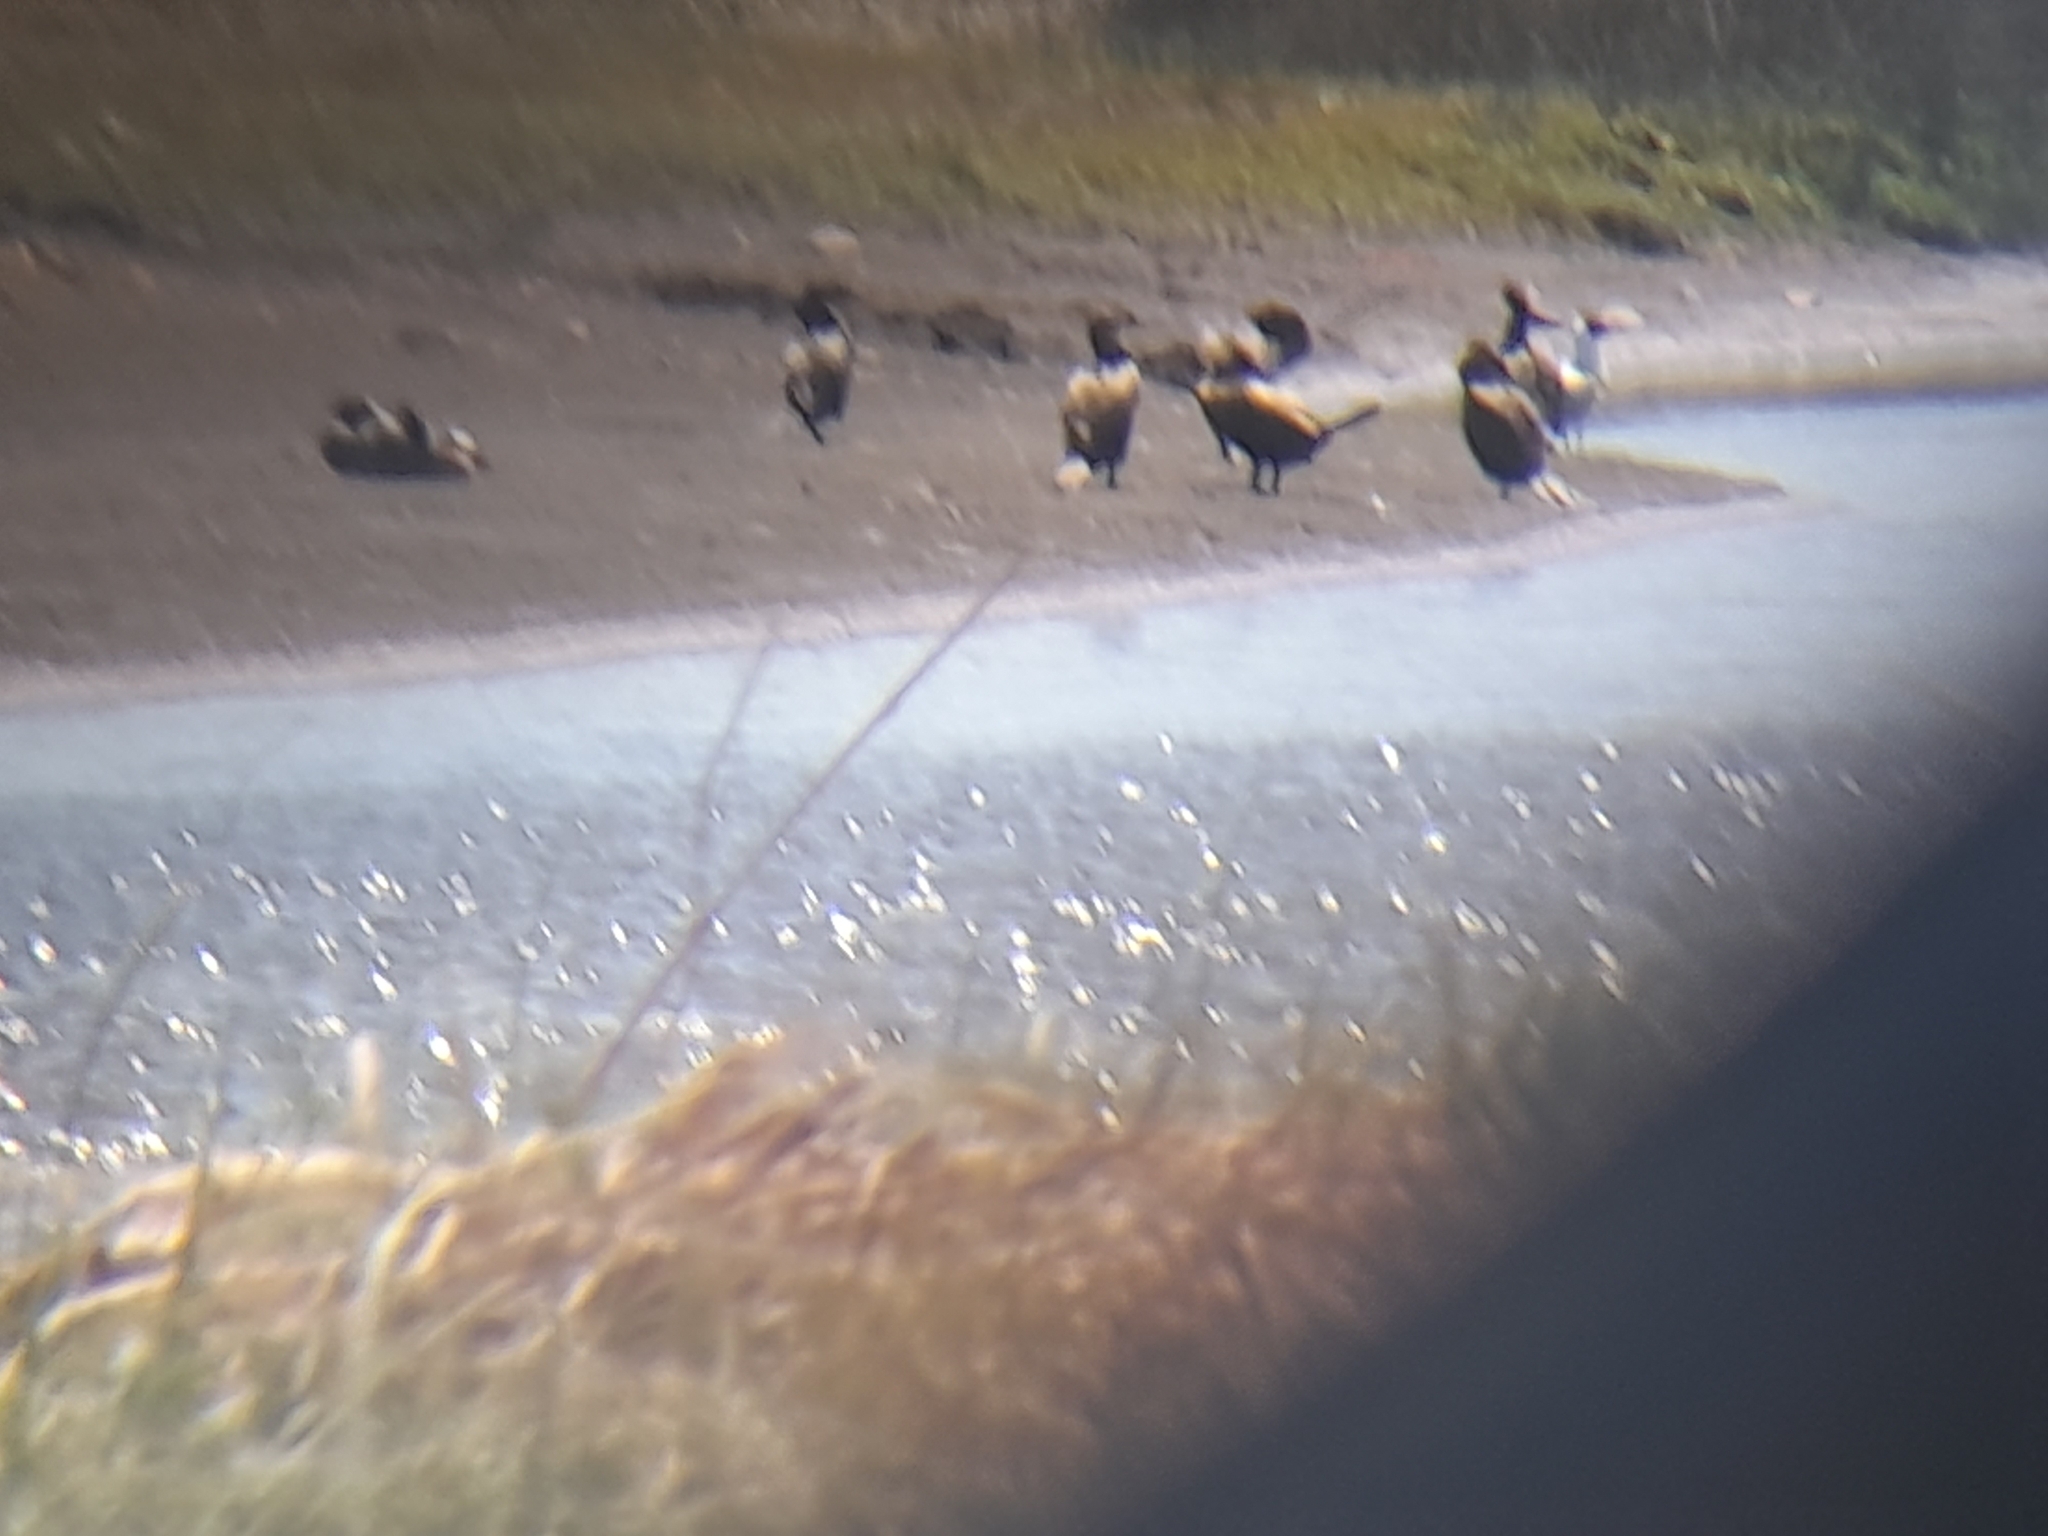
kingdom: Animalia
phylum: Chordata
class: Aves
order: Suliformes
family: Phalacrocoracidae
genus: Phalacrocorax
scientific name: Phalacrocorax brasilianus
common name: Neotropic cormorant
